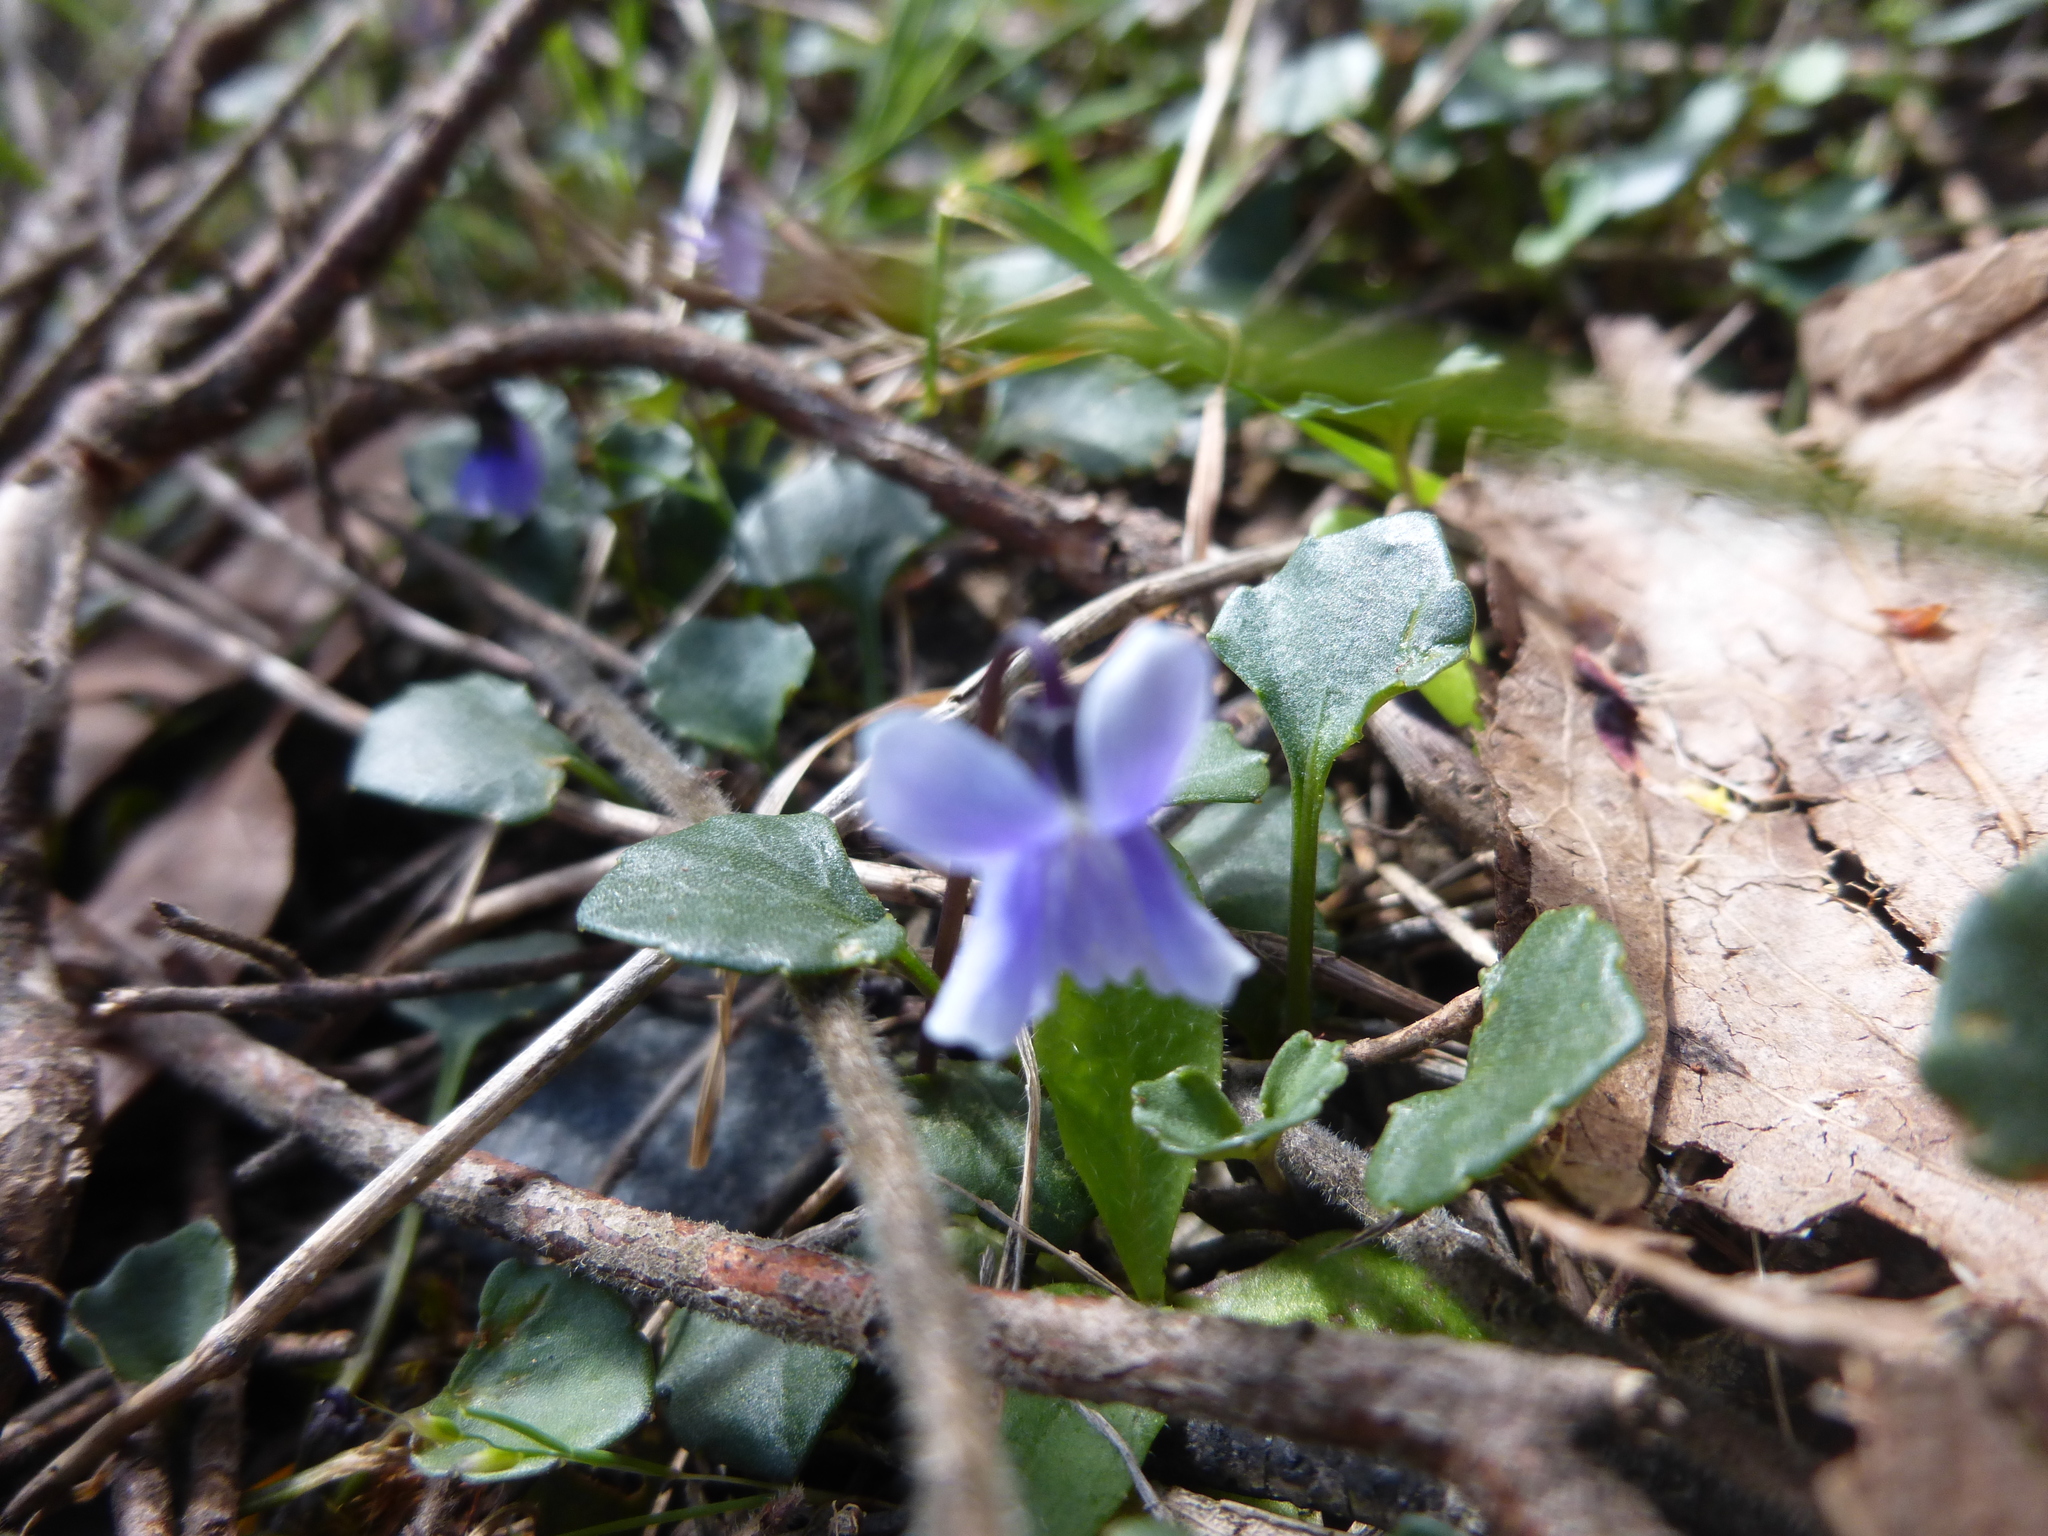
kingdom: Plantae
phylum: Tracheophyta
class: Magnoliopsida
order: Malpighiales
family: Violaceae
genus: Viola
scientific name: Viola sieberiana
